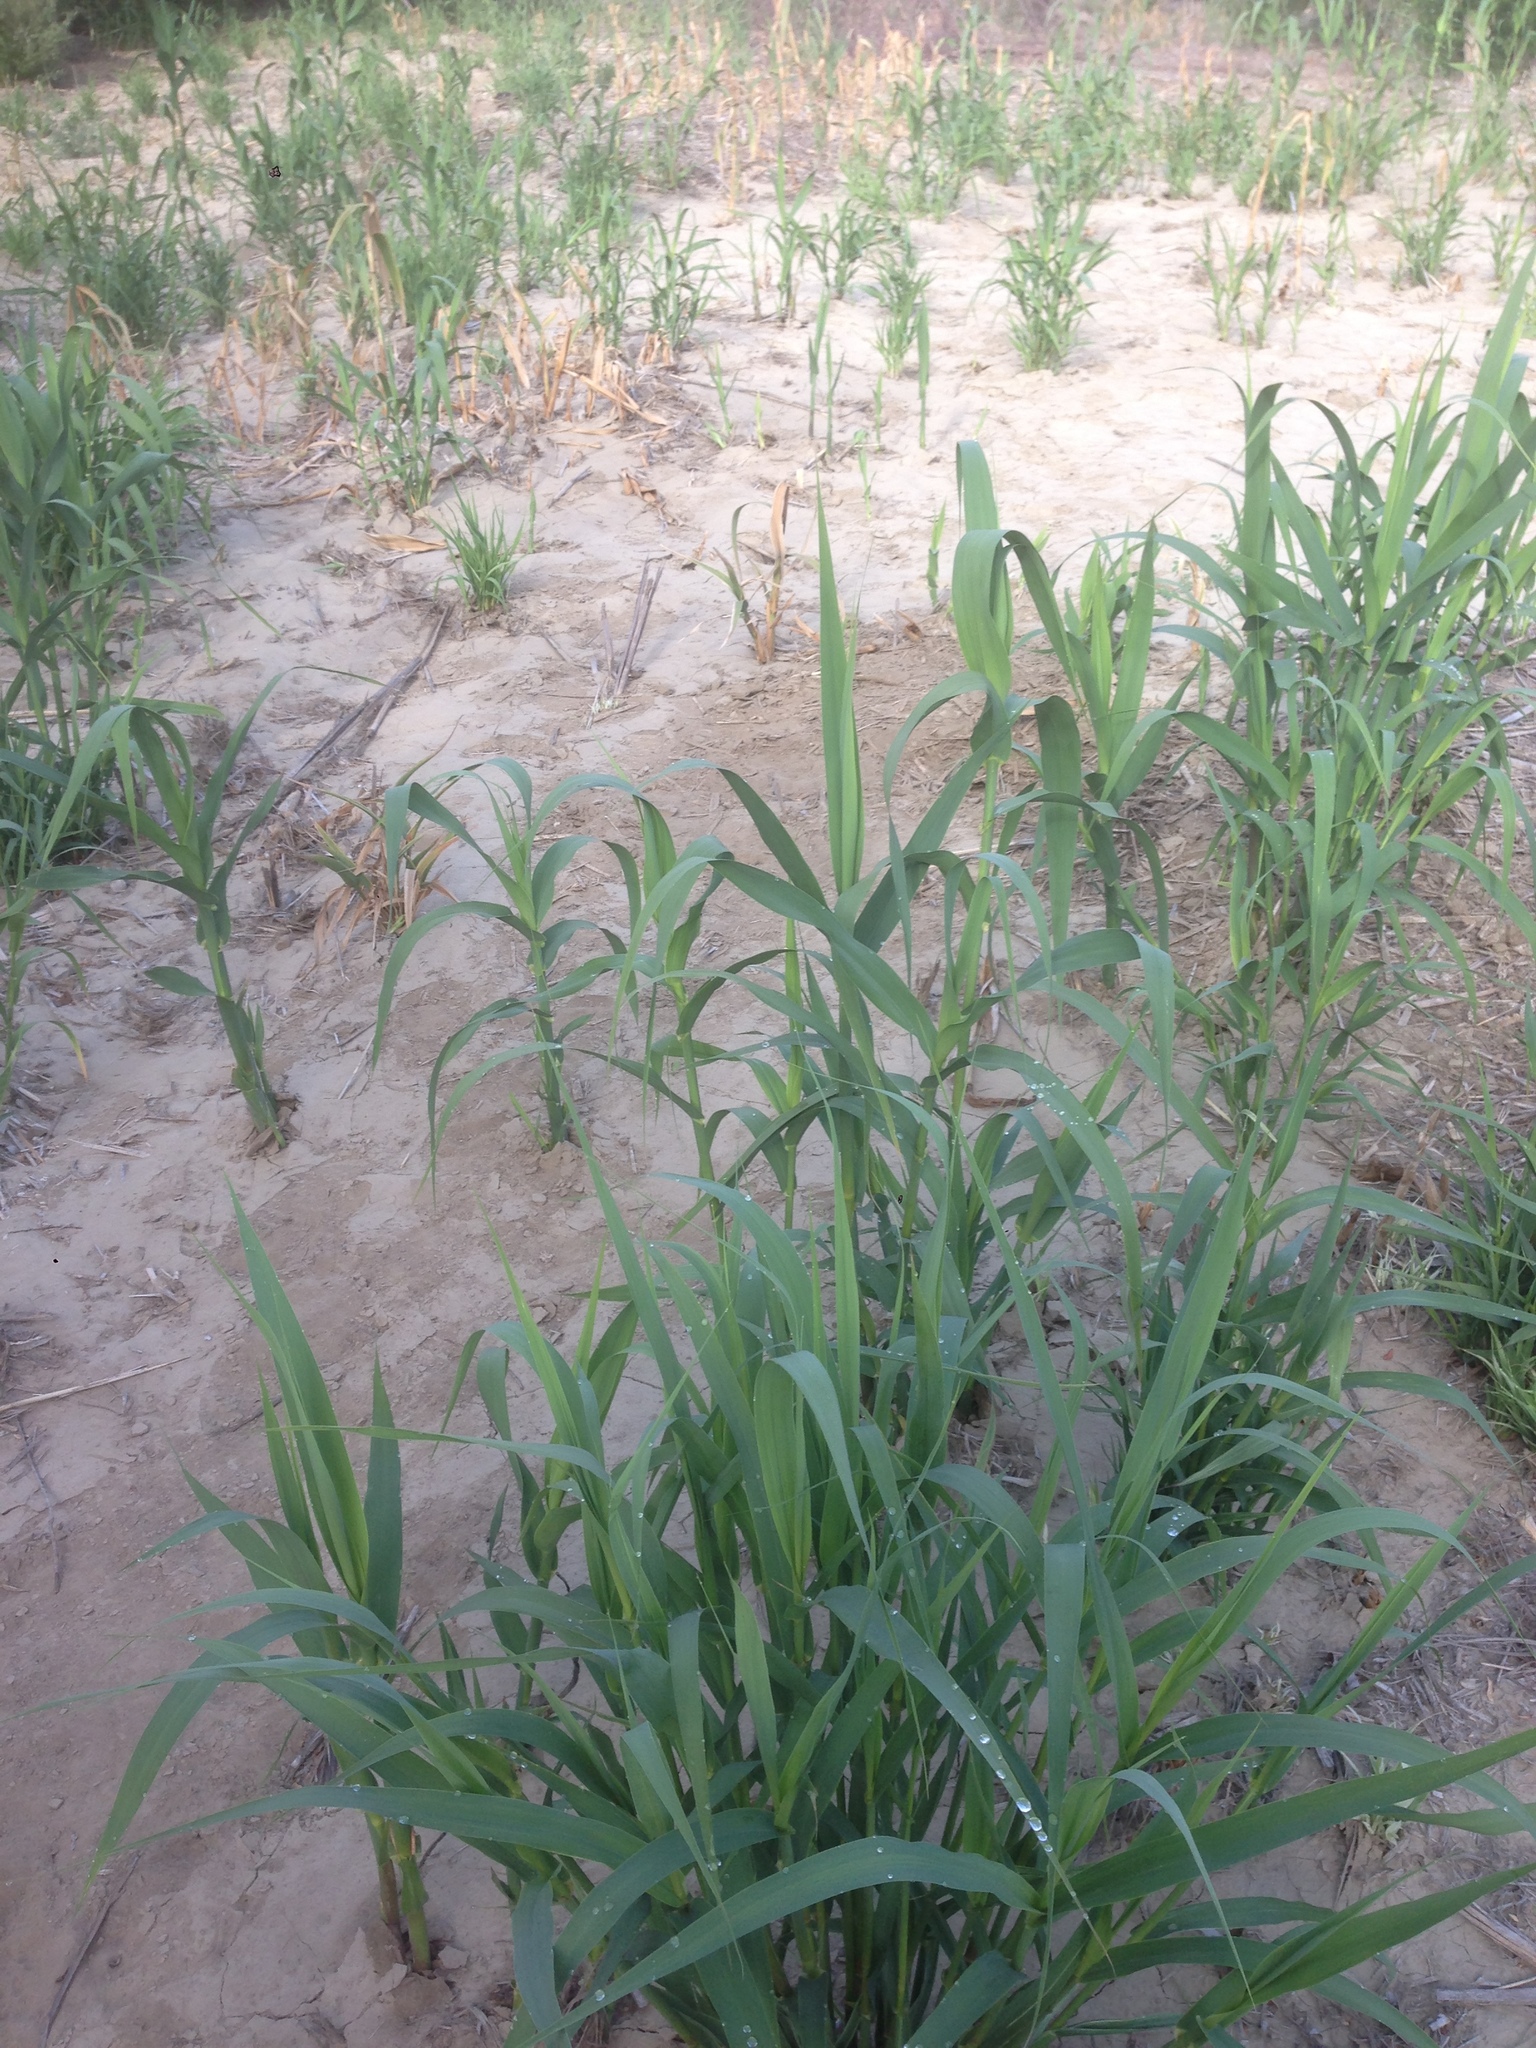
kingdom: Plantae
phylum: Tracheophyta
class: Liliopsida
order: Poales
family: Poaceae
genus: Arundo
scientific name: Arundo donax
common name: Giant reed
